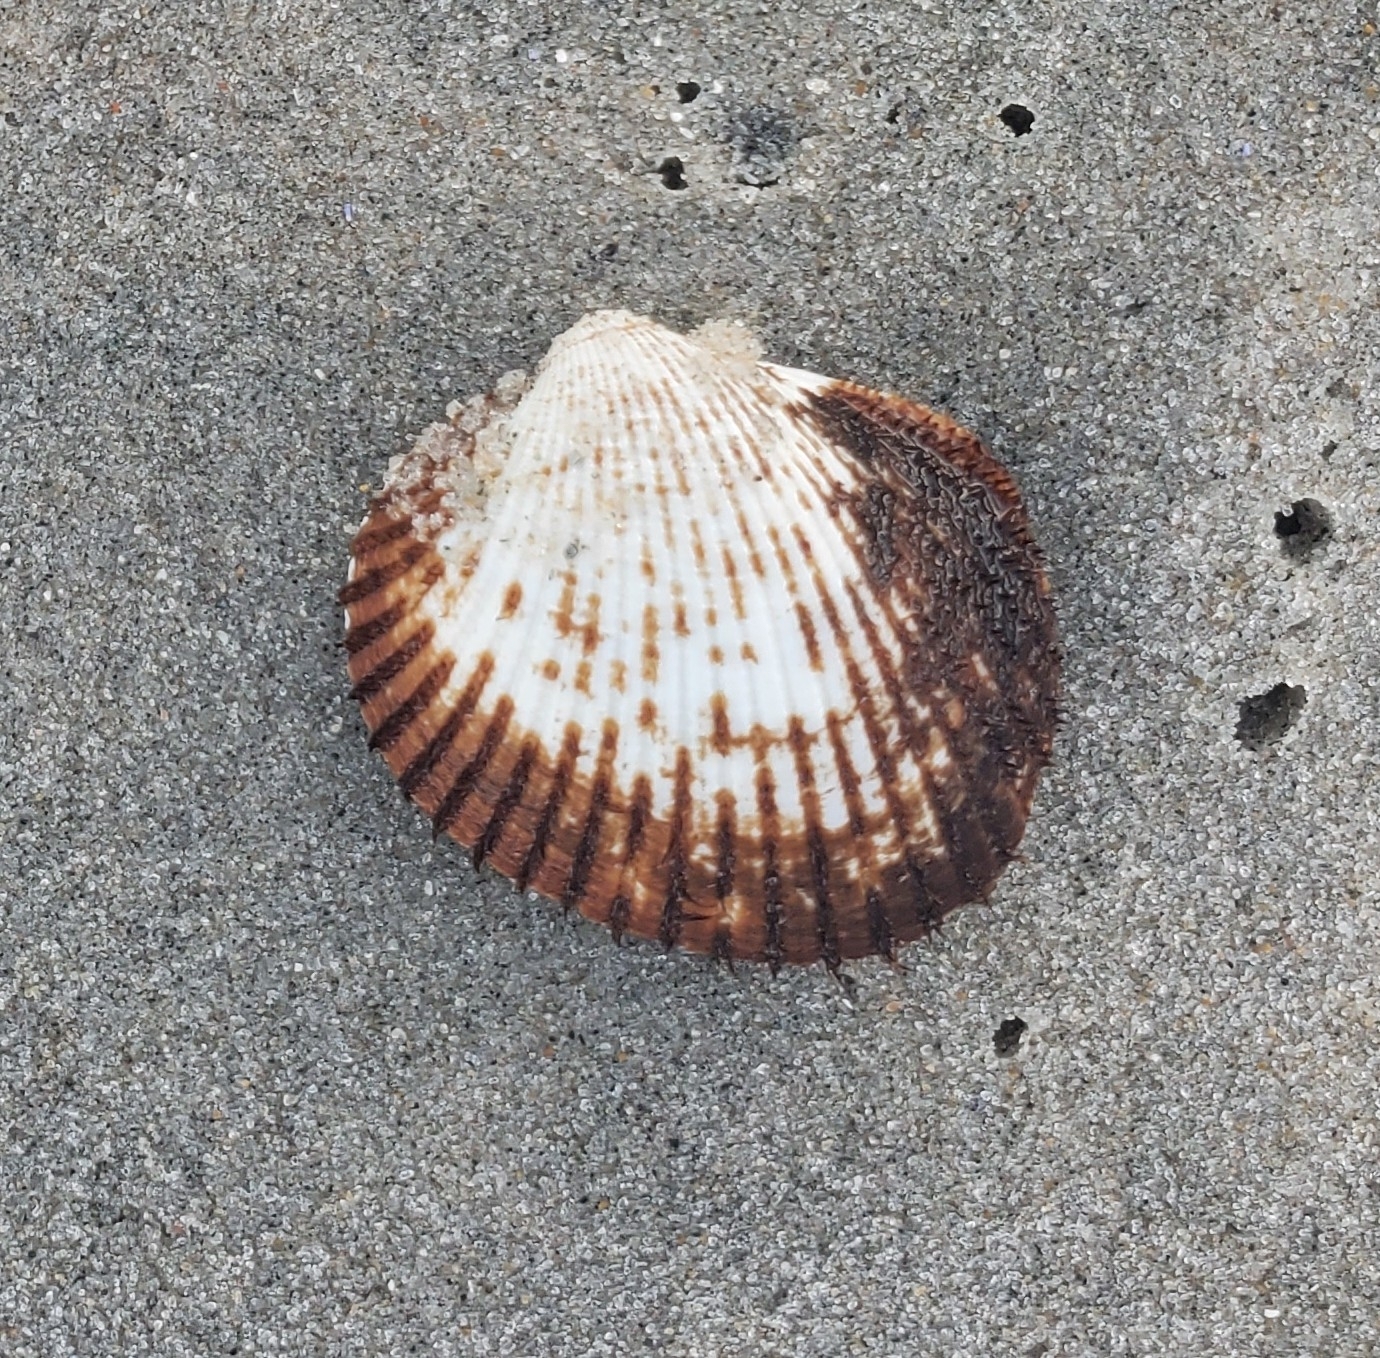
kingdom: Animalia
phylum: Mollusca
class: Bivalvia
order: Arcida
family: Arcidae
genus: Lunarca
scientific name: Lunarca ovalis
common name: Blood ark
